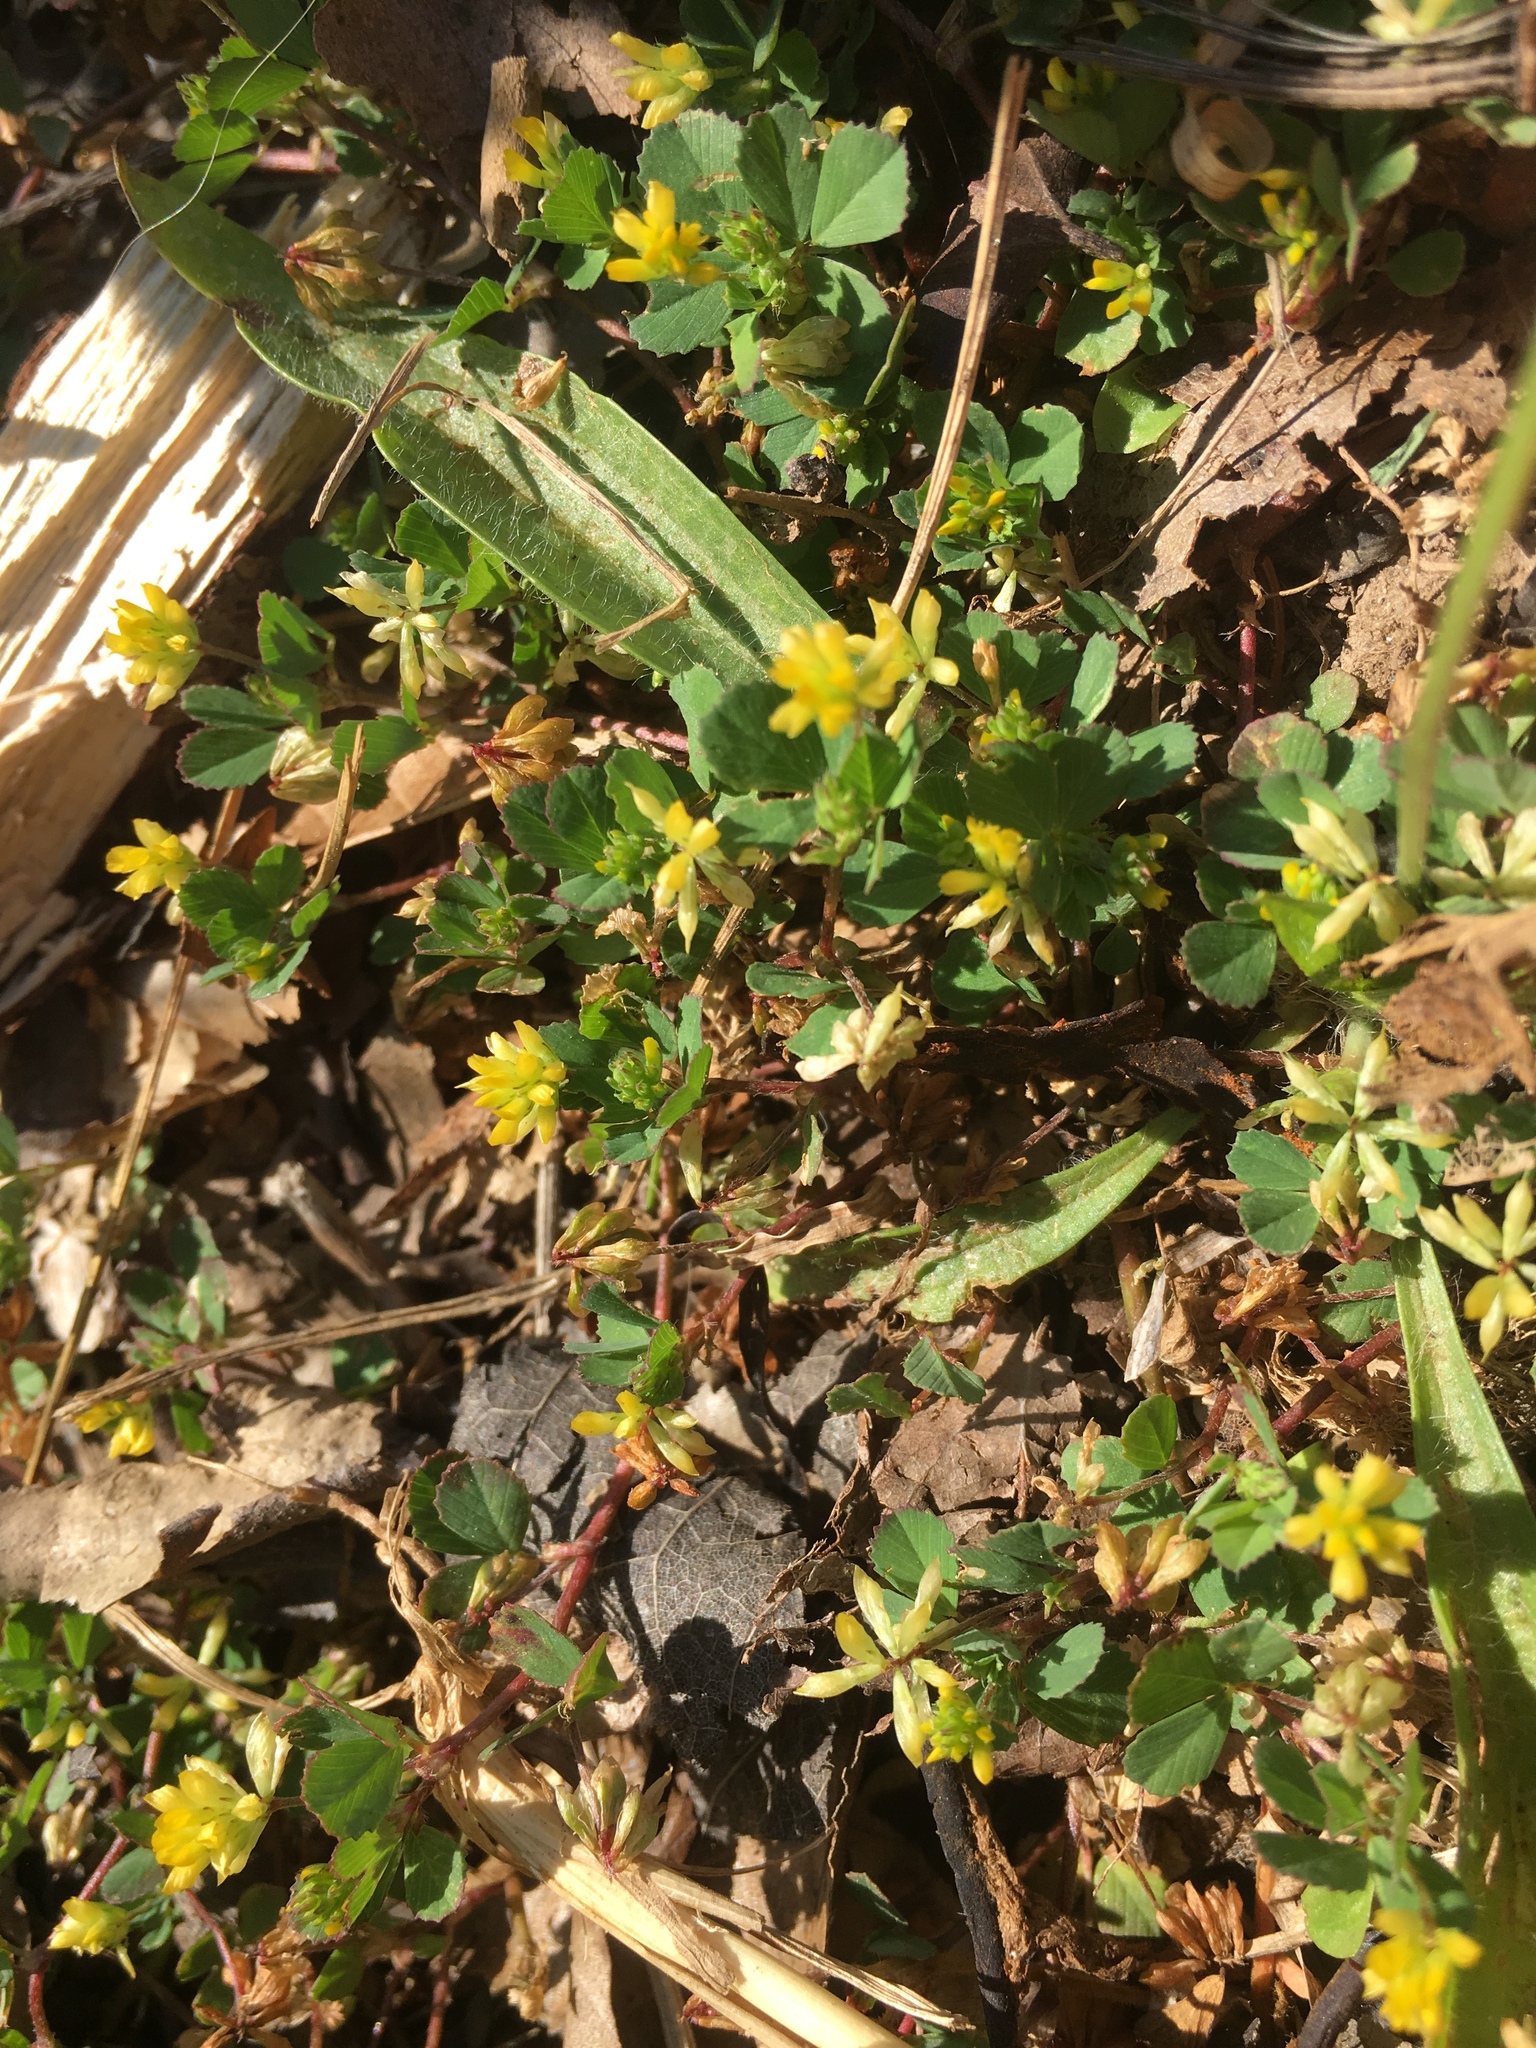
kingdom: Plantae
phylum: Tracheophyta
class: Magnoliopsida
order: Fabales
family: Fabaceae
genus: Trifolium
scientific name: Trifolium dubium
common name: Suckling clover
